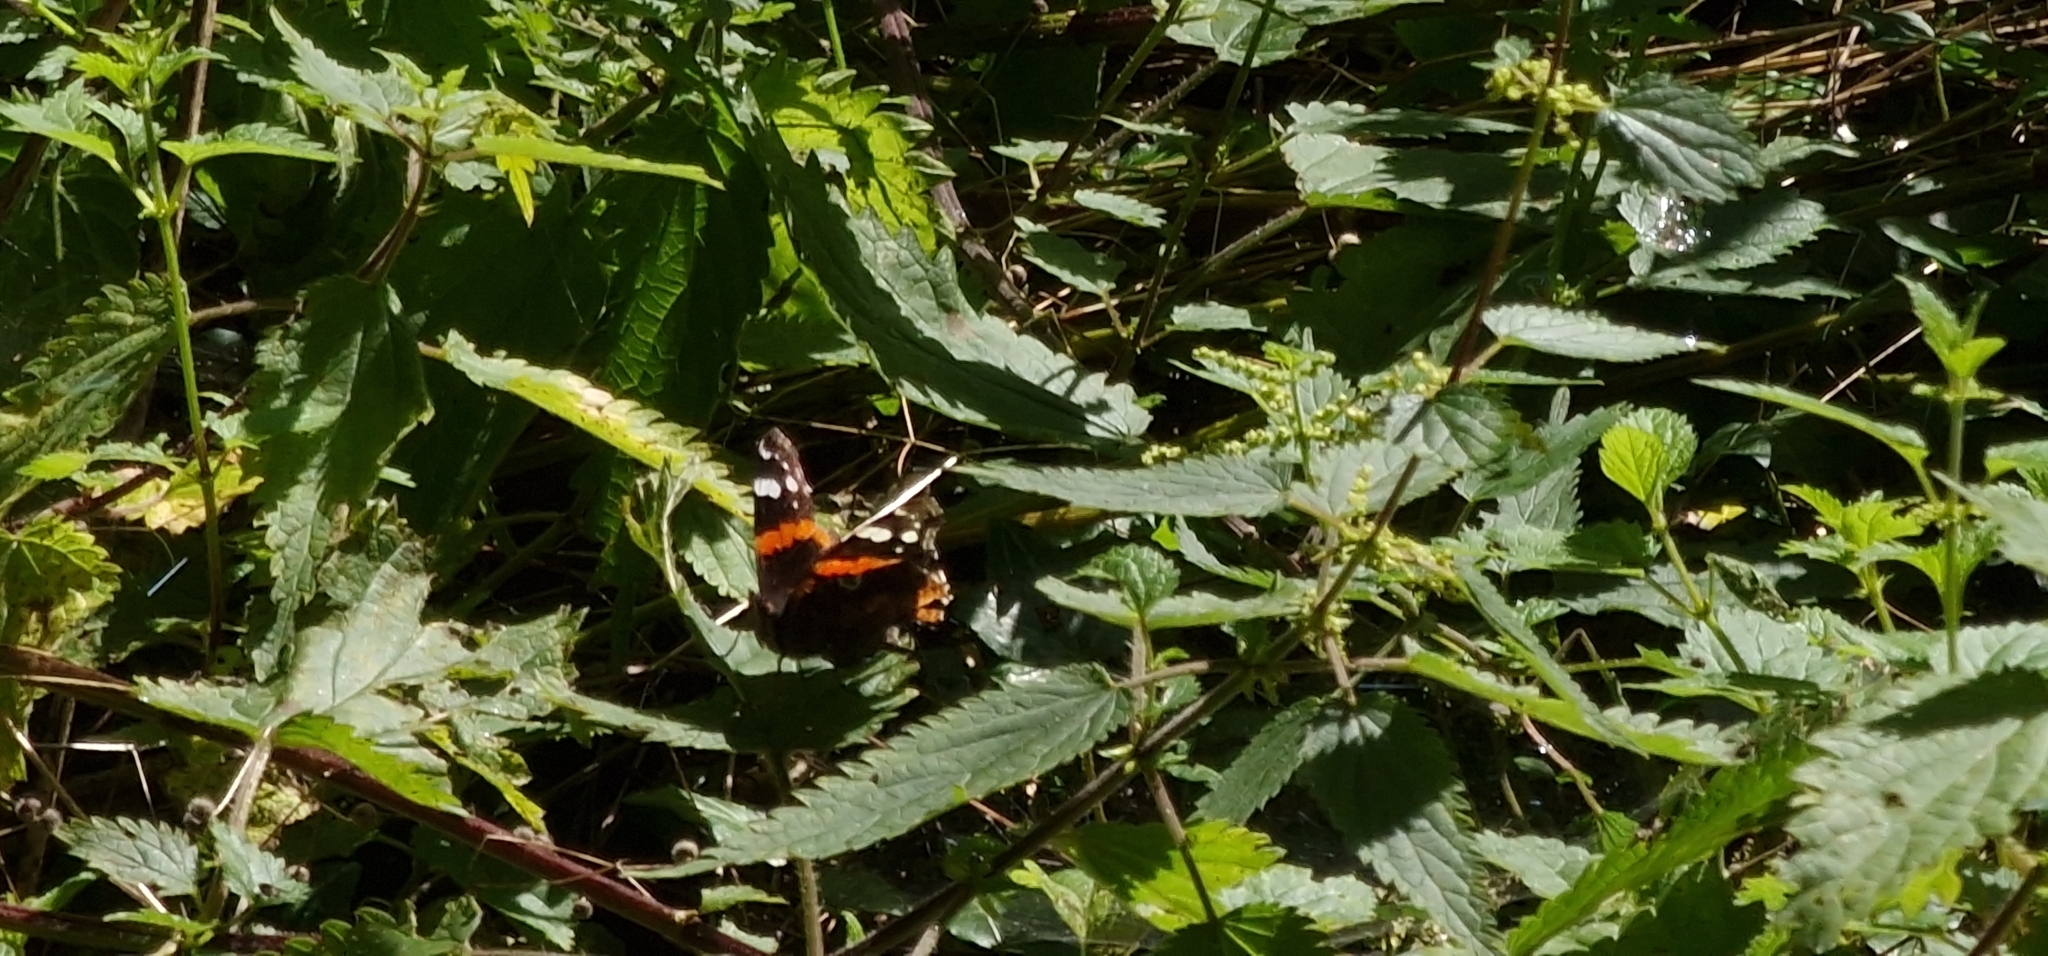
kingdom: Animalia
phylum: Arthropoda
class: Insecta
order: Lepidoptera
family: Nymphalidae
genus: Vanessa
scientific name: Vanessa atalanta
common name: Red admiral
